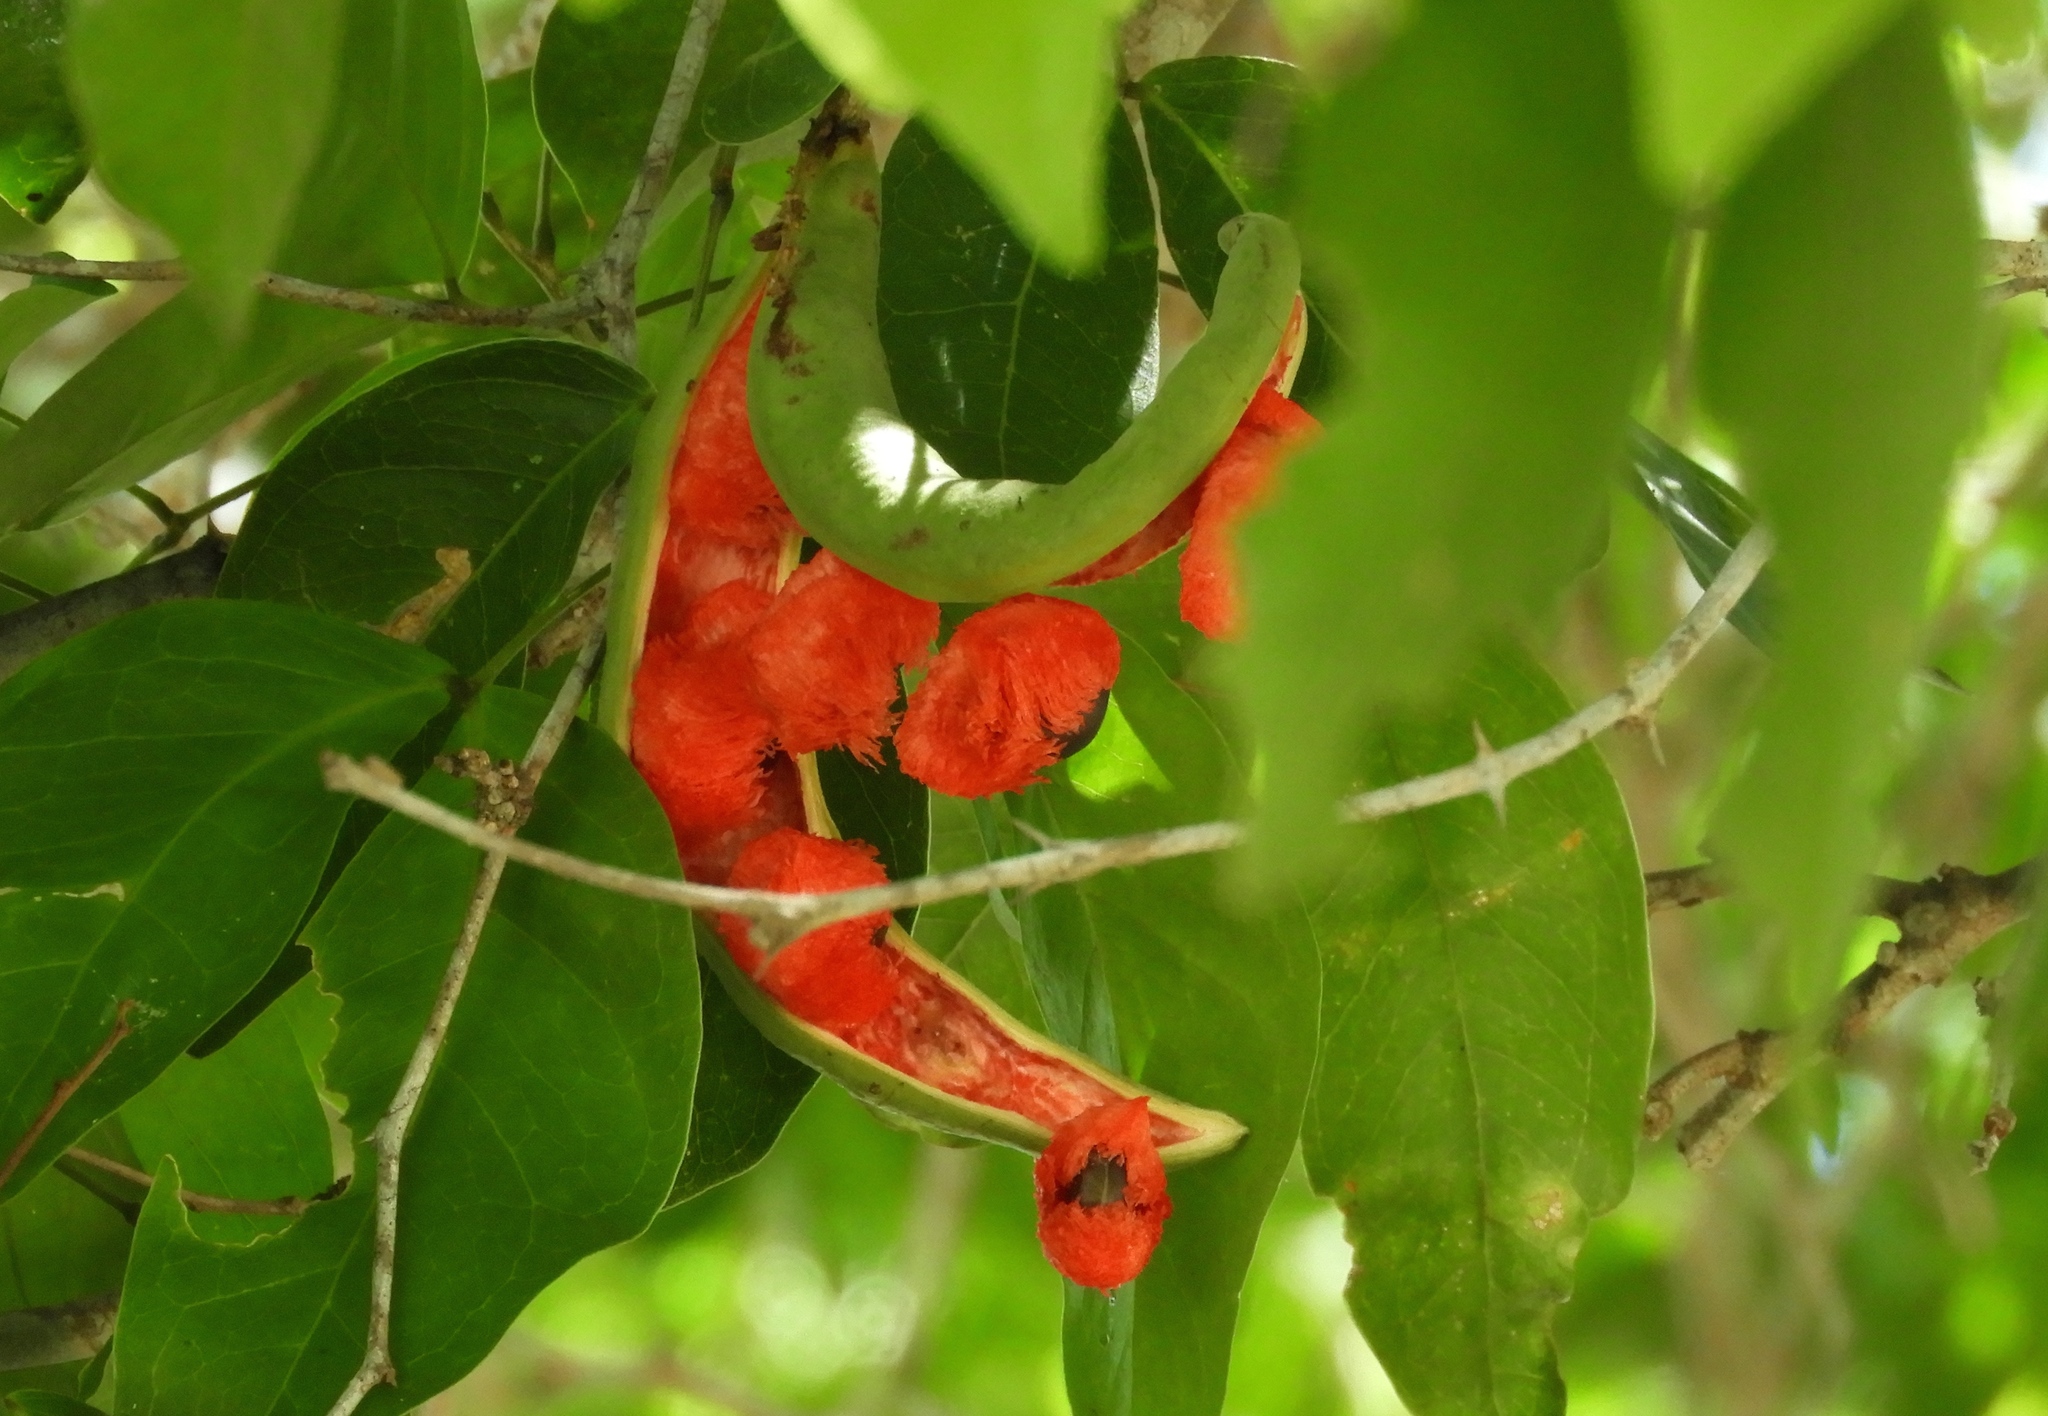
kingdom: Plantae
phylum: Tracheophyta
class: Magnoliopsida
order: Fabales
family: Fabaceae
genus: Pithecellobium
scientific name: Pithecellobium lanceolatum
